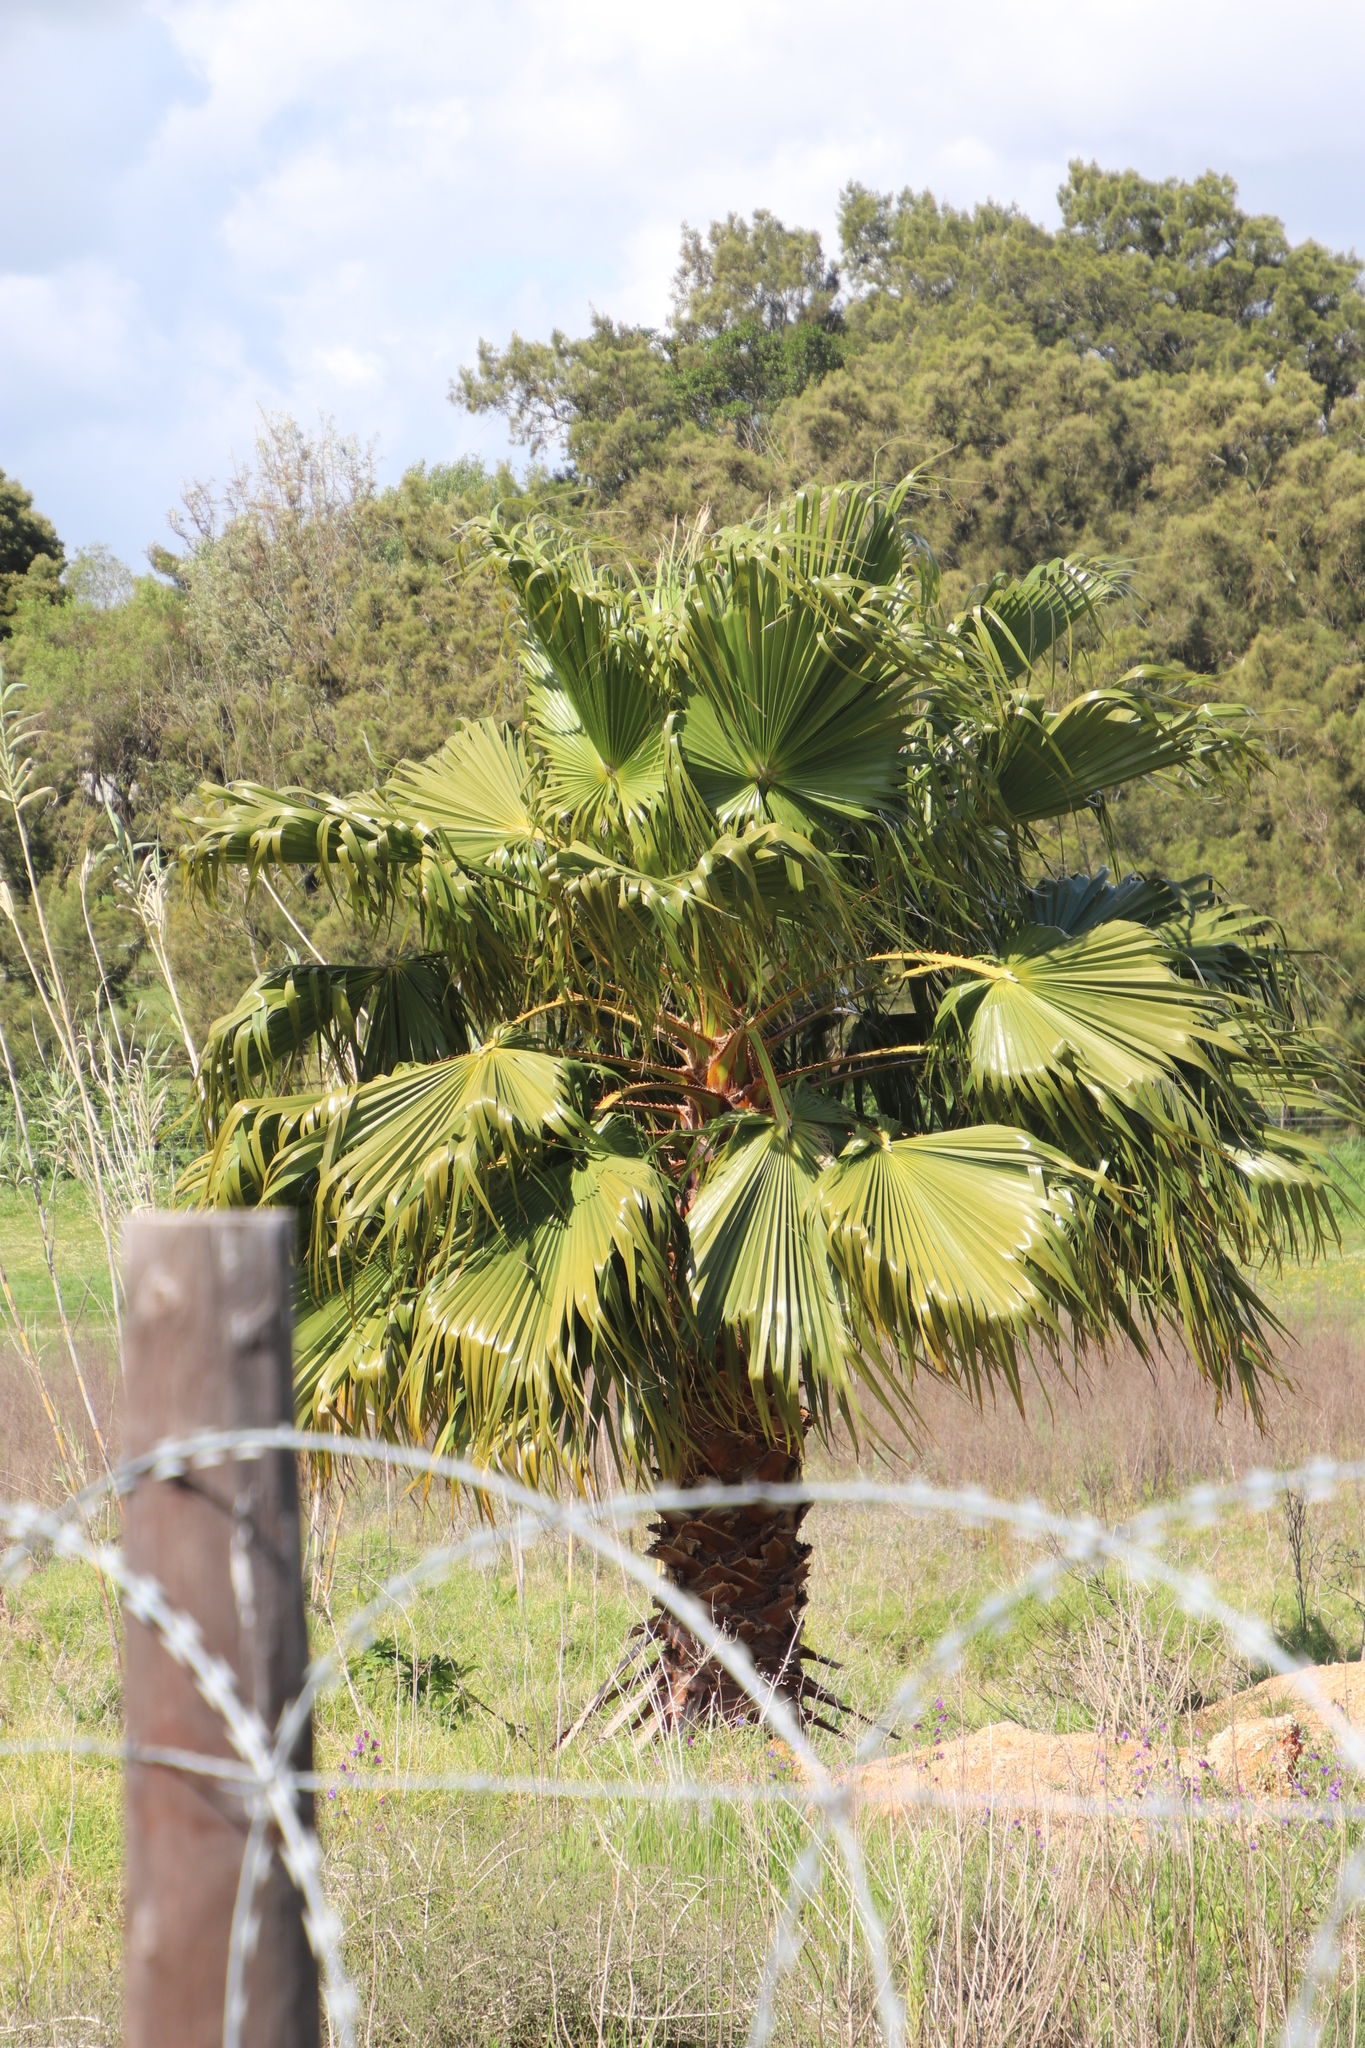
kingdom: Plantae
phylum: Tracheophyta
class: Liliopsida
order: Arecales
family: Arecaceae
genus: Washingtonia
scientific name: Washingtonia filifera
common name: California fan palm
